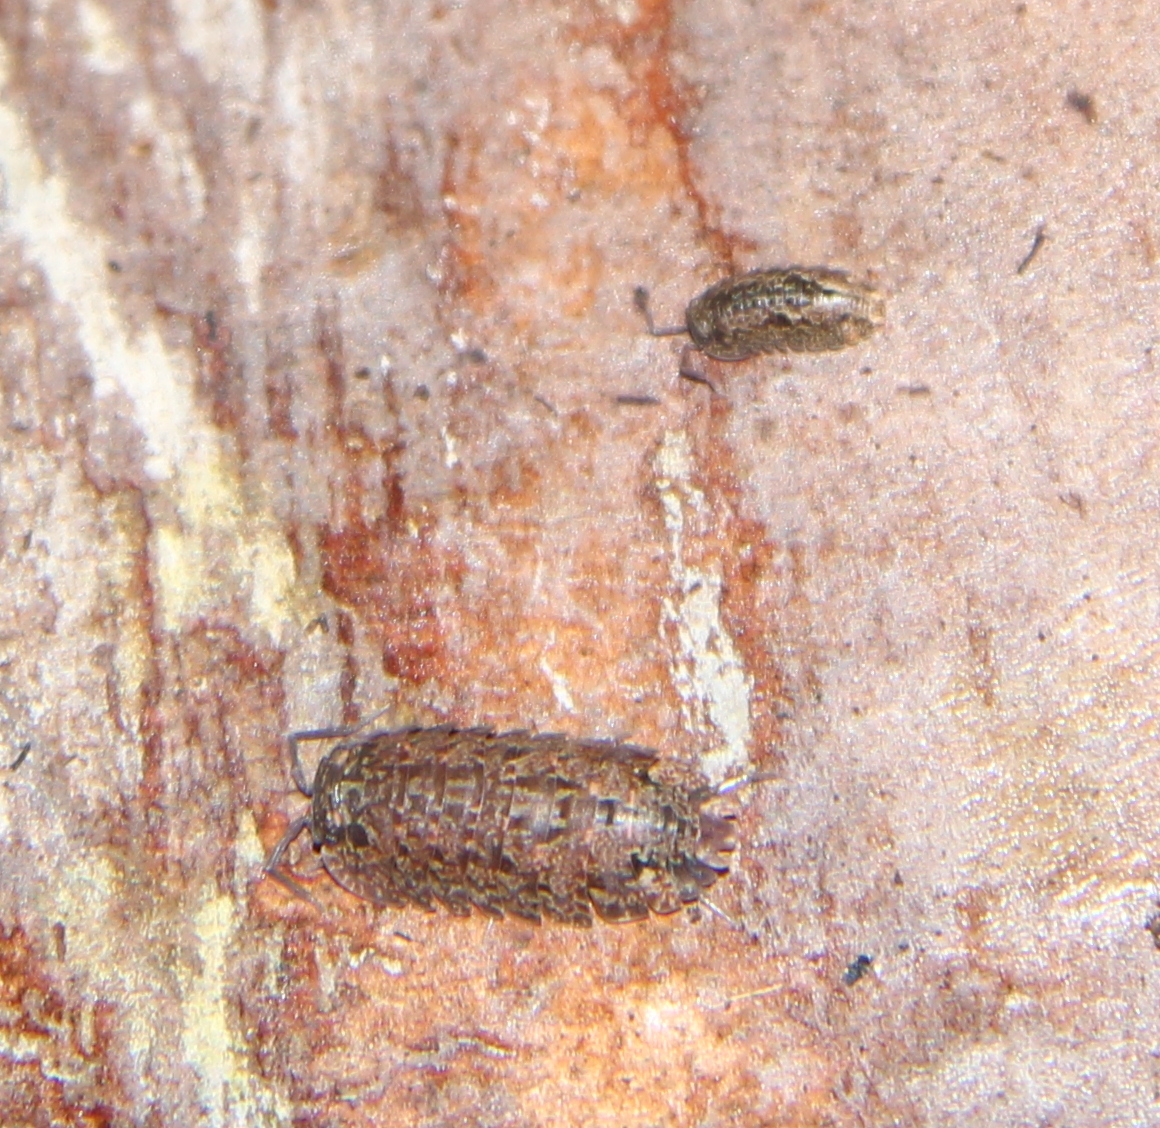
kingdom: Animalia
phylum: Arthropoda
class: Malacostraca
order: Isopoda
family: Armadillidae
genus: Cubaris
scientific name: Cubaris tarangensis
